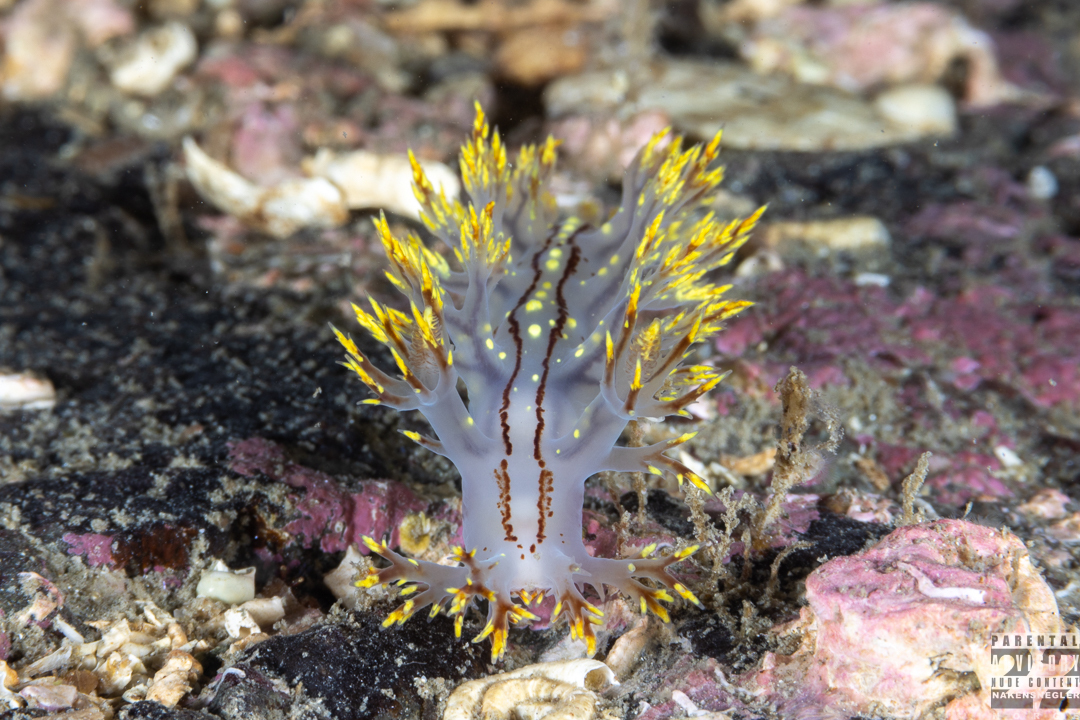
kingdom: Animalia
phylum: Mollusca
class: Gastropoda
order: Nudibranchia
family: Dendronotidae
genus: Dendronotus
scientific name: Dendronotus yrjargul
